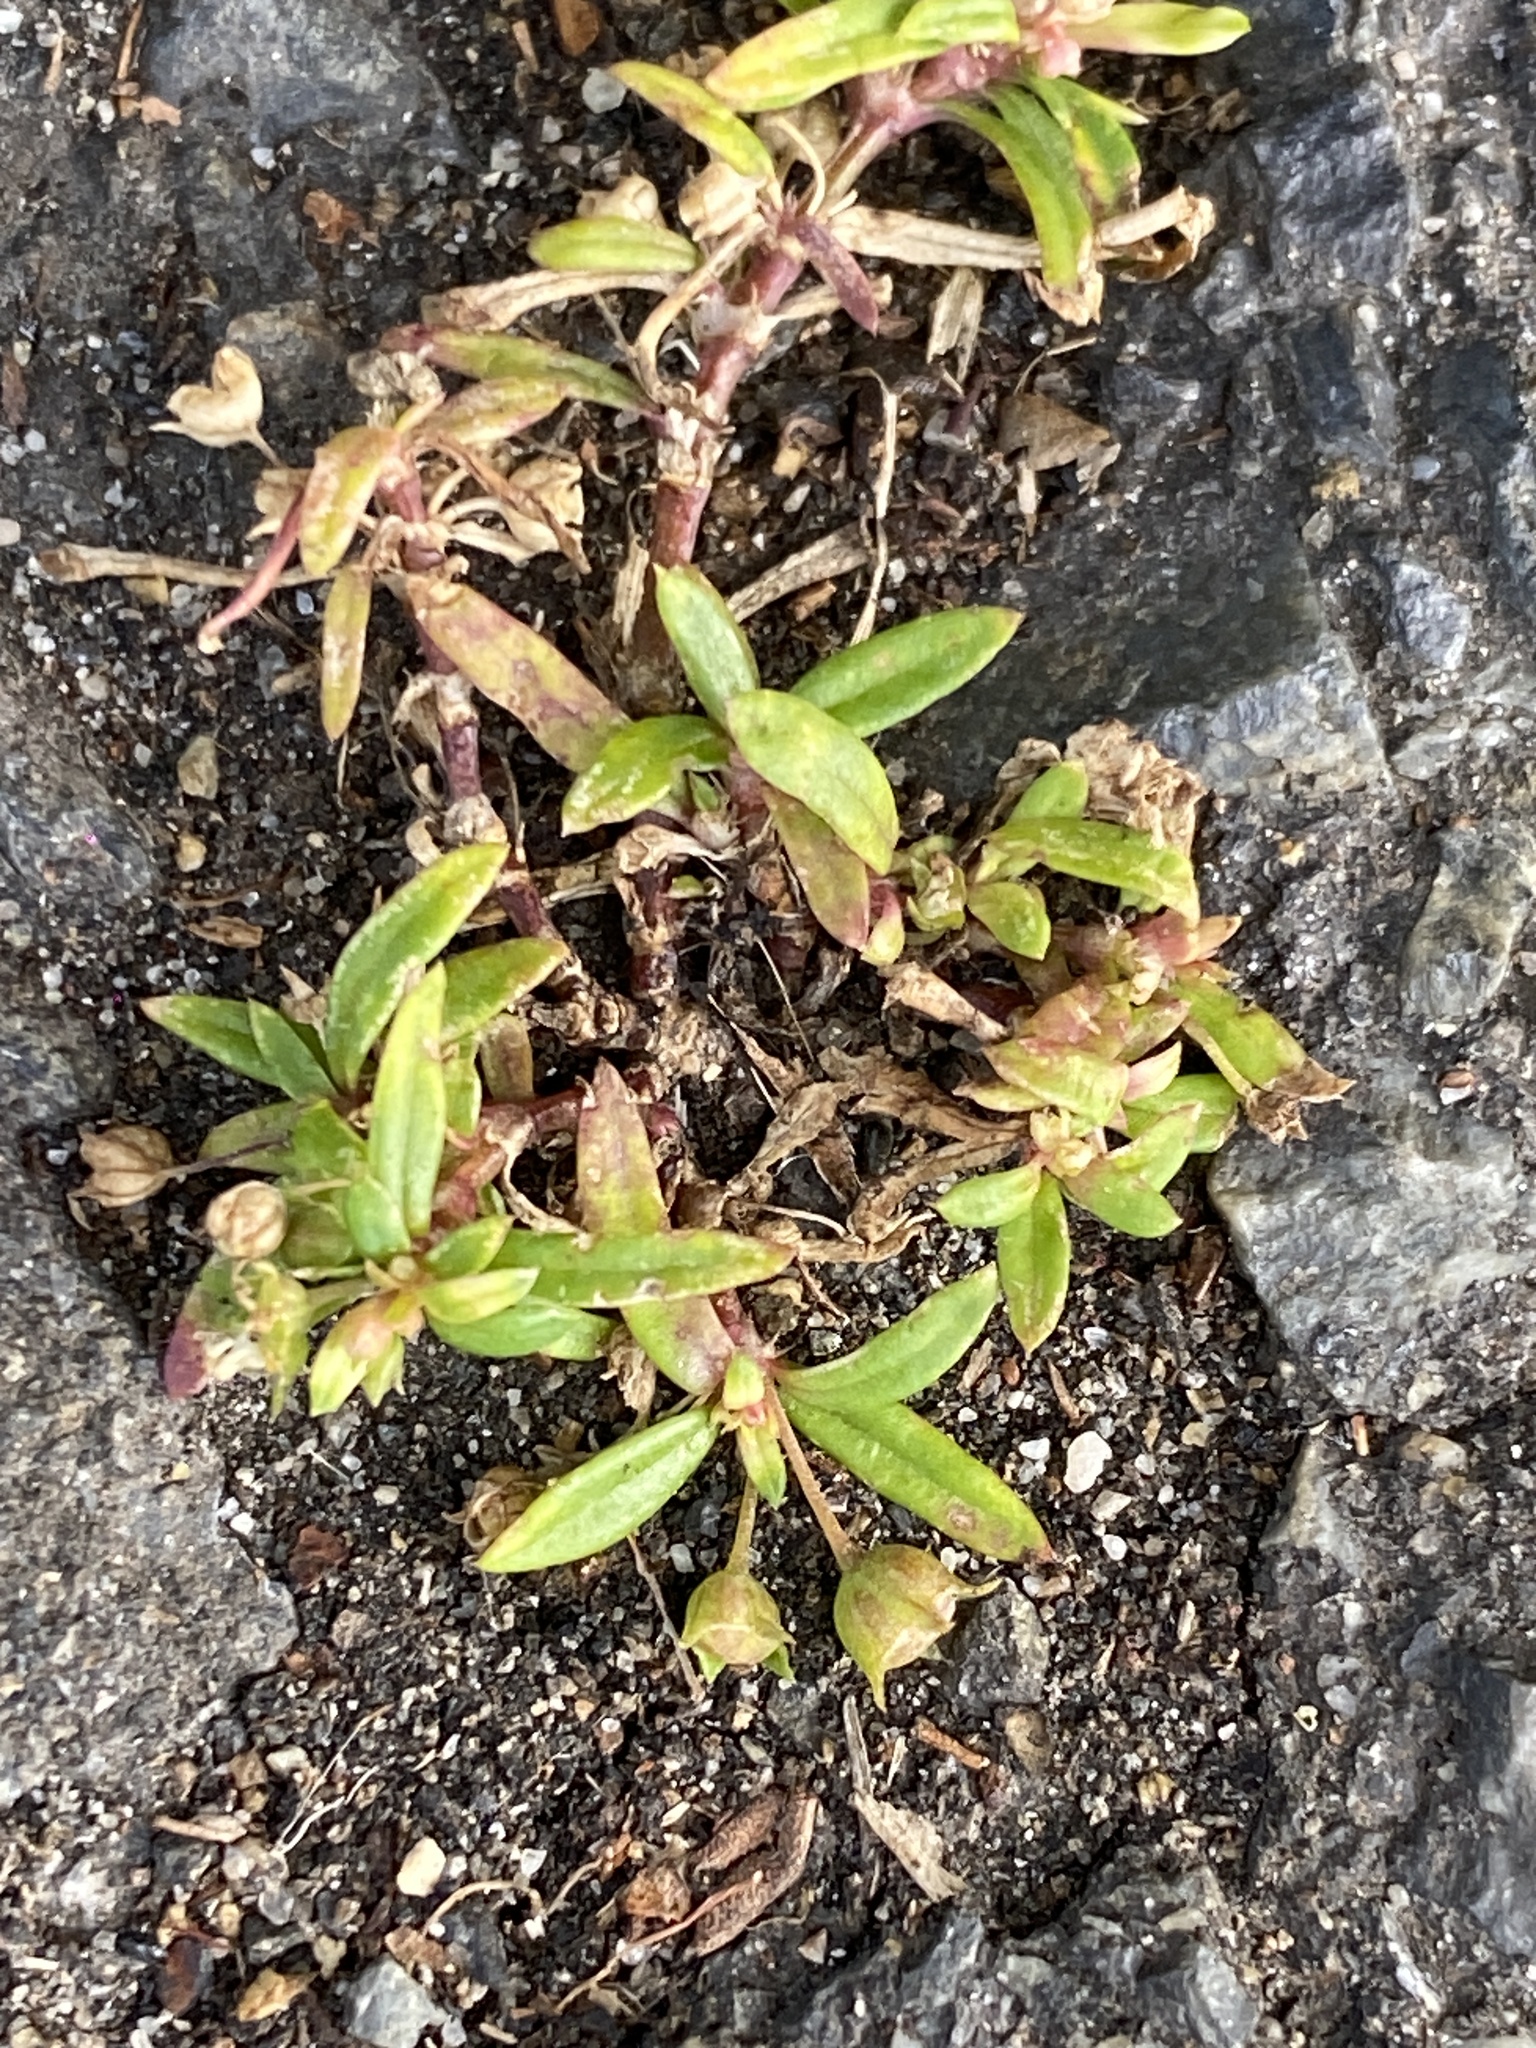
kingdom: Plantae
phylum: Tracheophyta
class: Magnoliopsida
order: Gentianales
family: Rubiaceae
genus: Oldenlandia
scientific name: Oldenlandia corymbosa
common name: Flat-top mille graines
